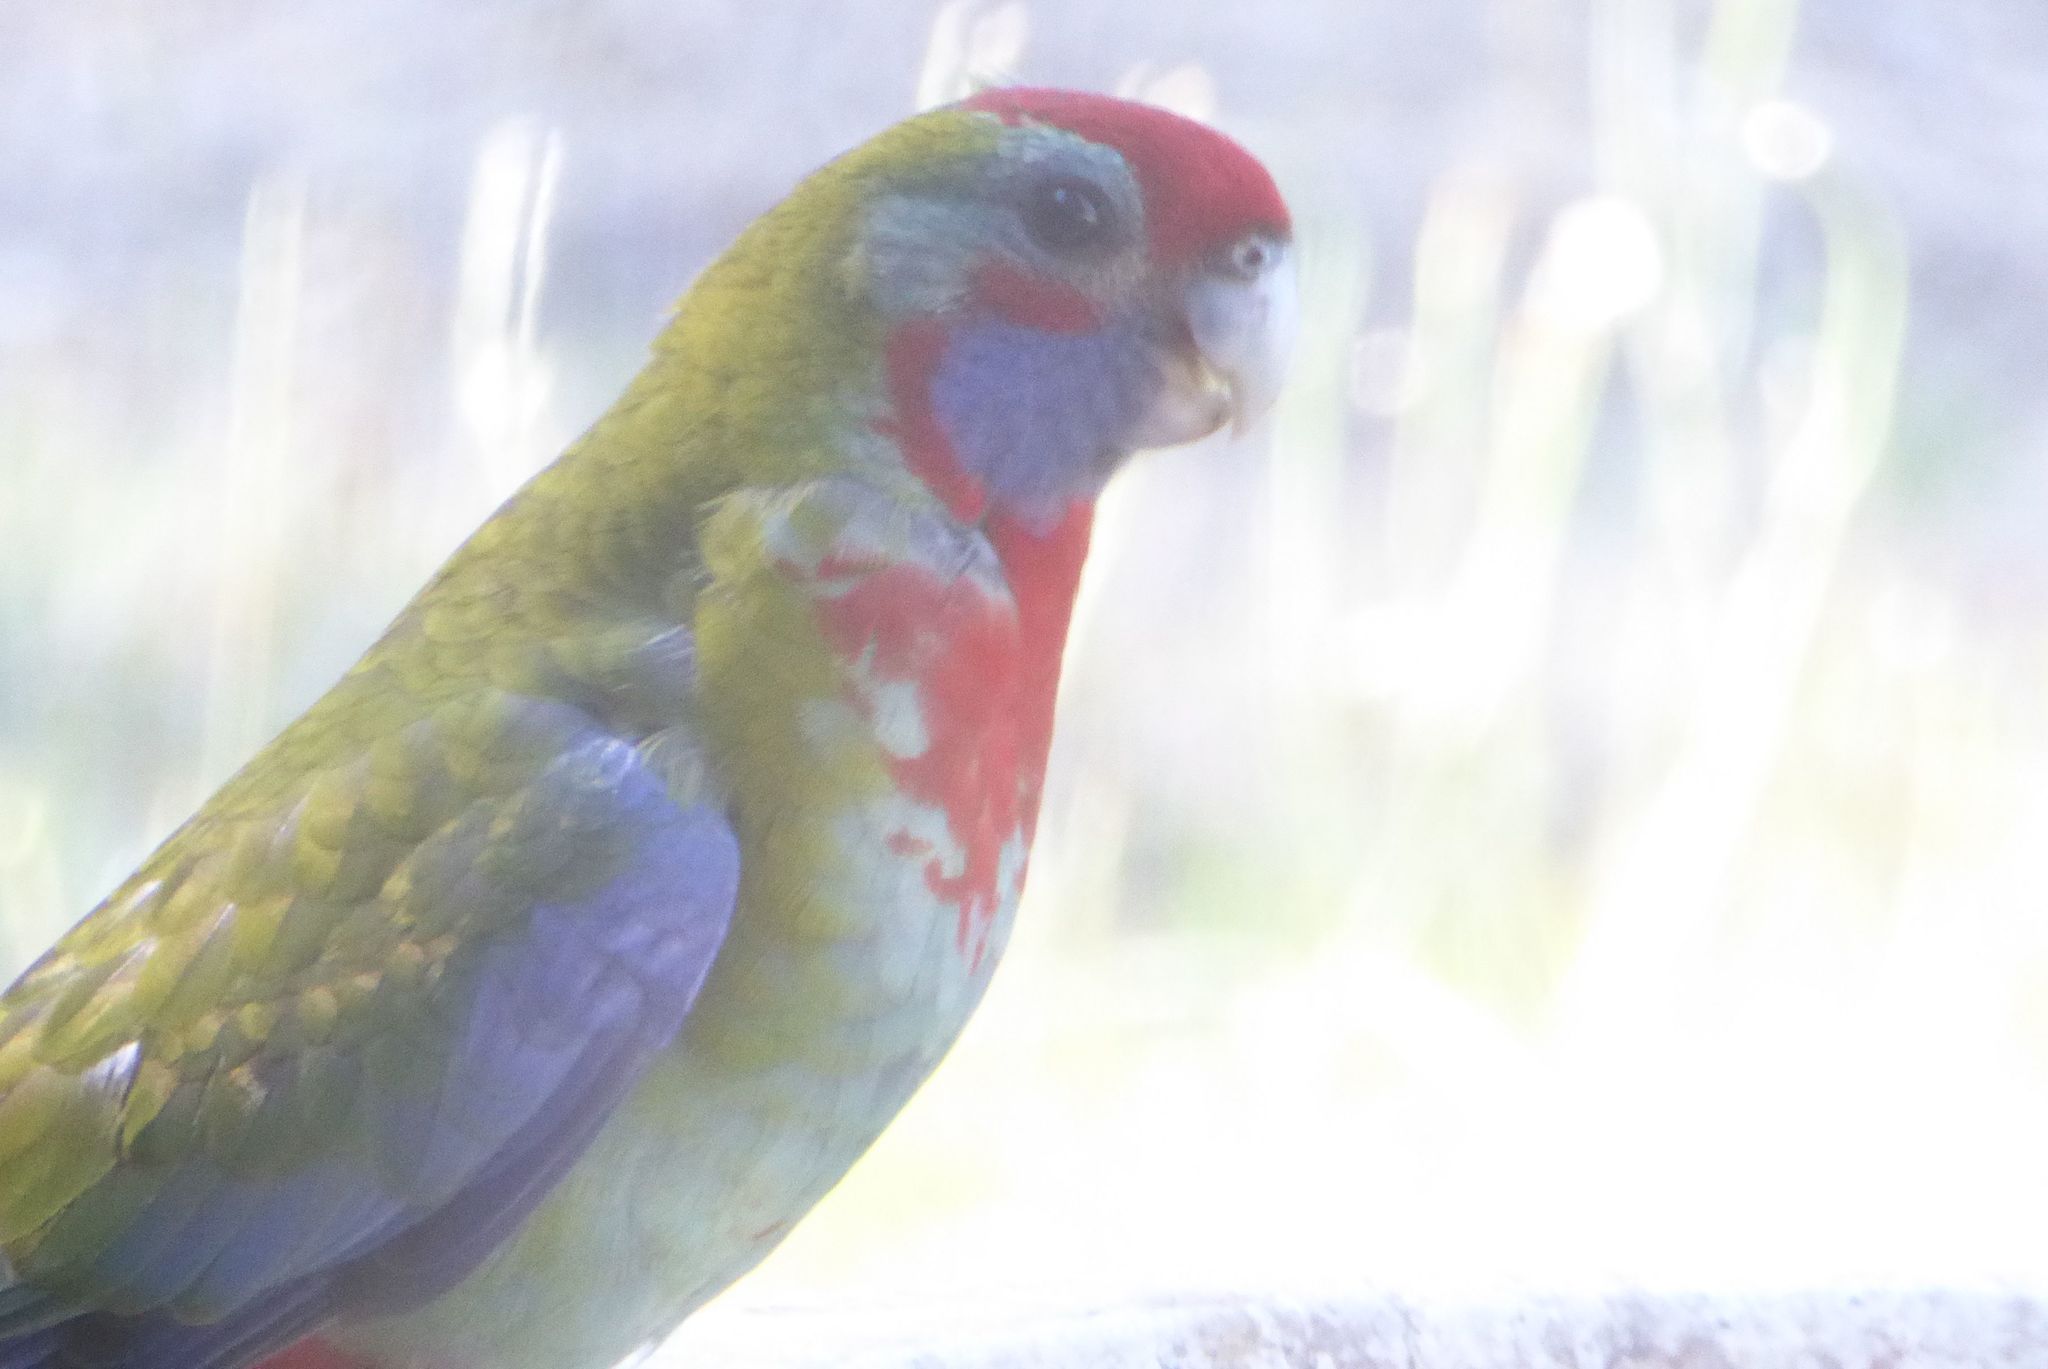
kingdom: Animalia
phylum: Chordata
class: Aves
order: Psittaciformes
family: Psittacidae
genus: Platycercus
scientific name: Platycercus elegans
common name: Crimson rosella
